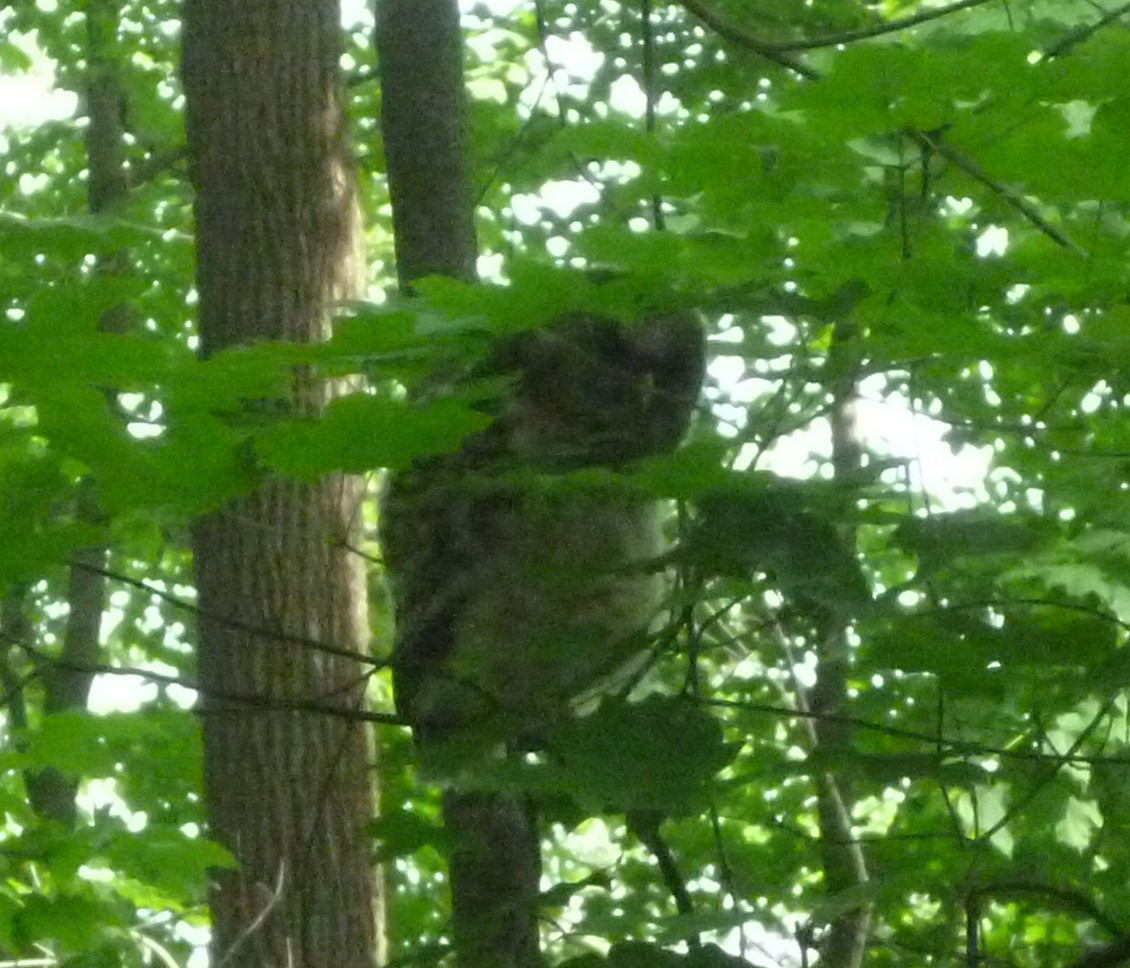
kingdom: Animalia
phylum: Chordata
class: Aves
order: Strigiformes
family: Strigidae
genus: Strix
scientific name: Strix varia
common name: Barred owl
